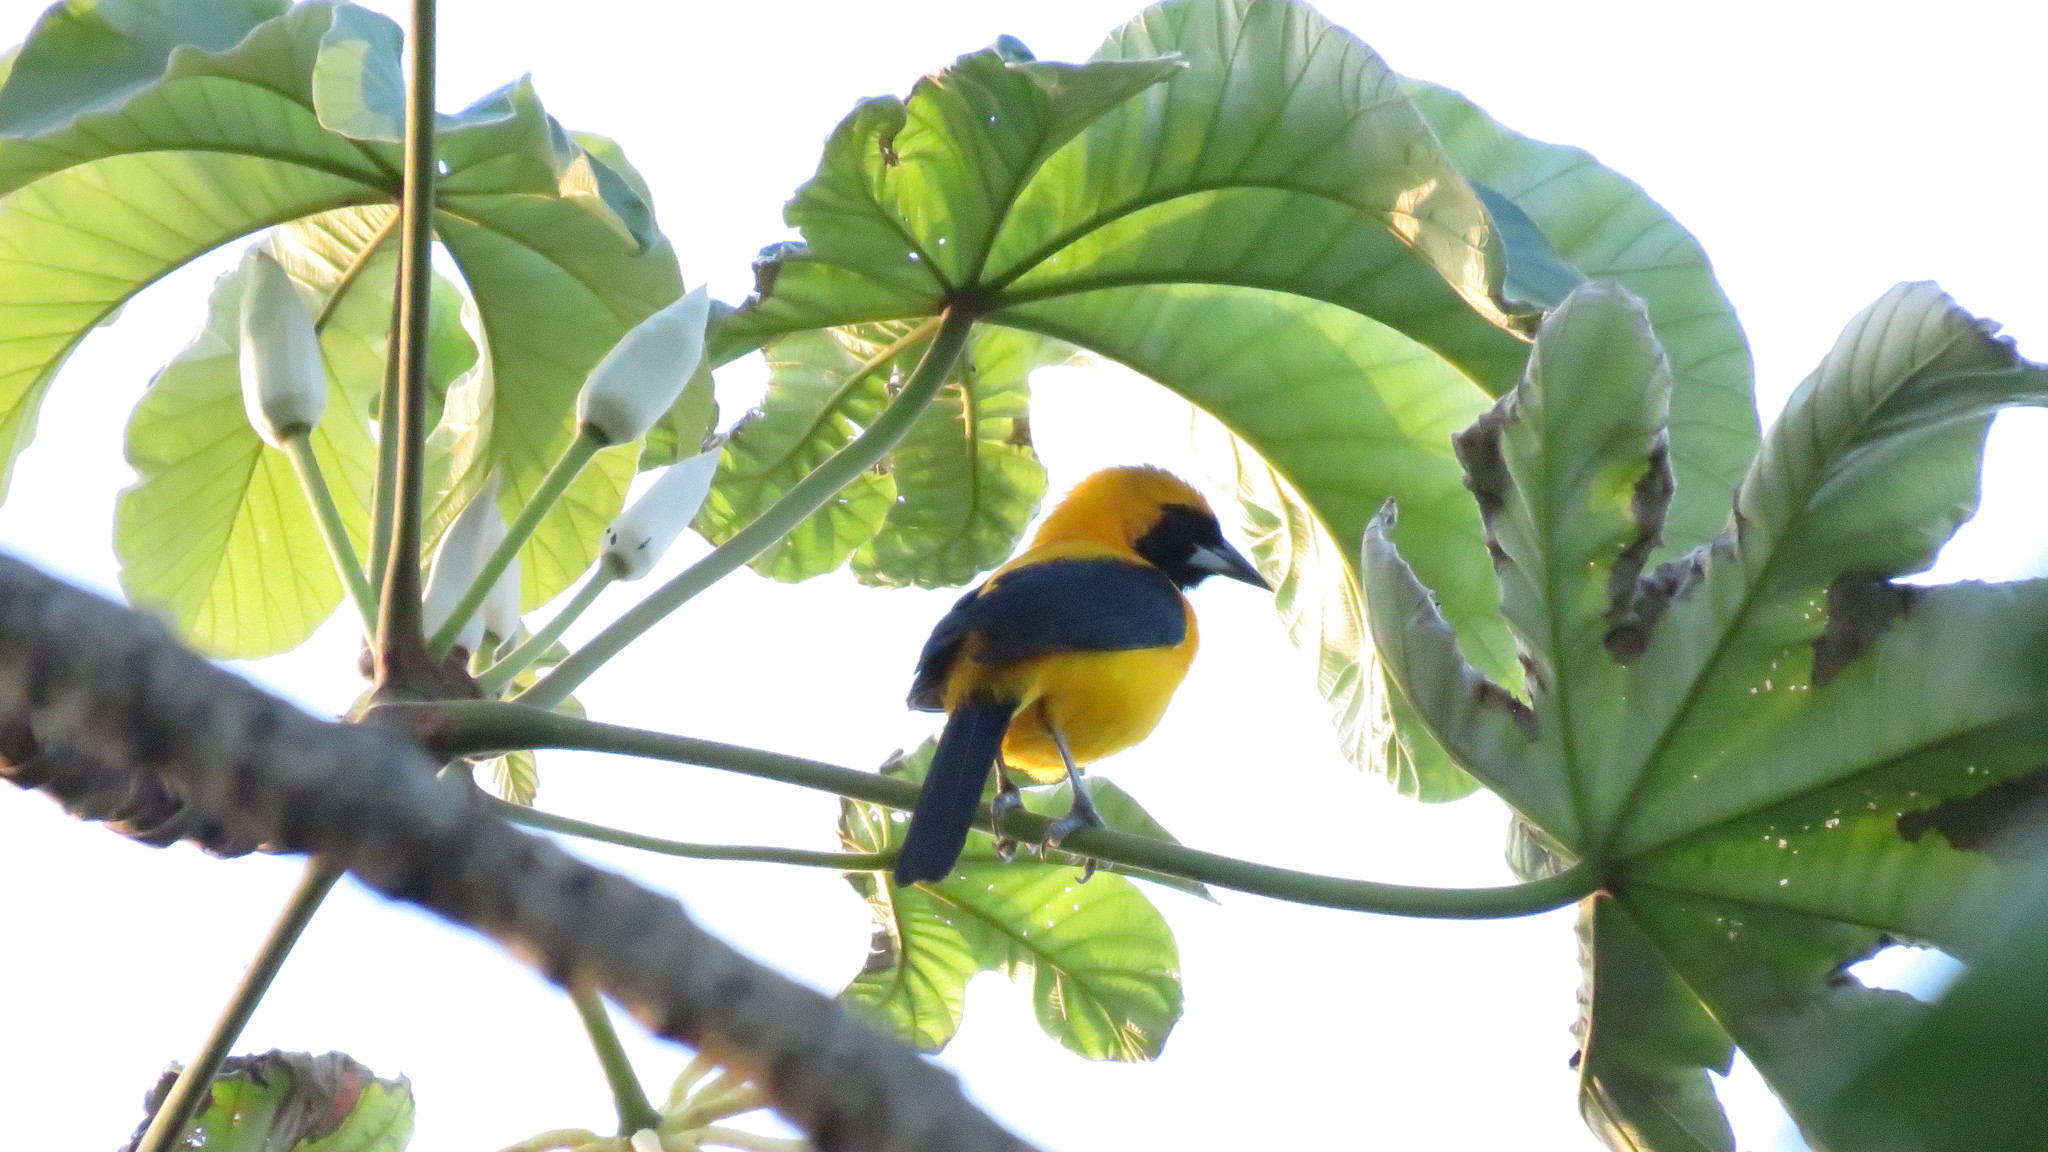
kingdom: Animalia
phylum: Chordata
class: Aves
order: Passeriformes
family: Icteridae
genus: Icterus
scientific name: Icterus chrysater
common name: Yellow-backed oriole
